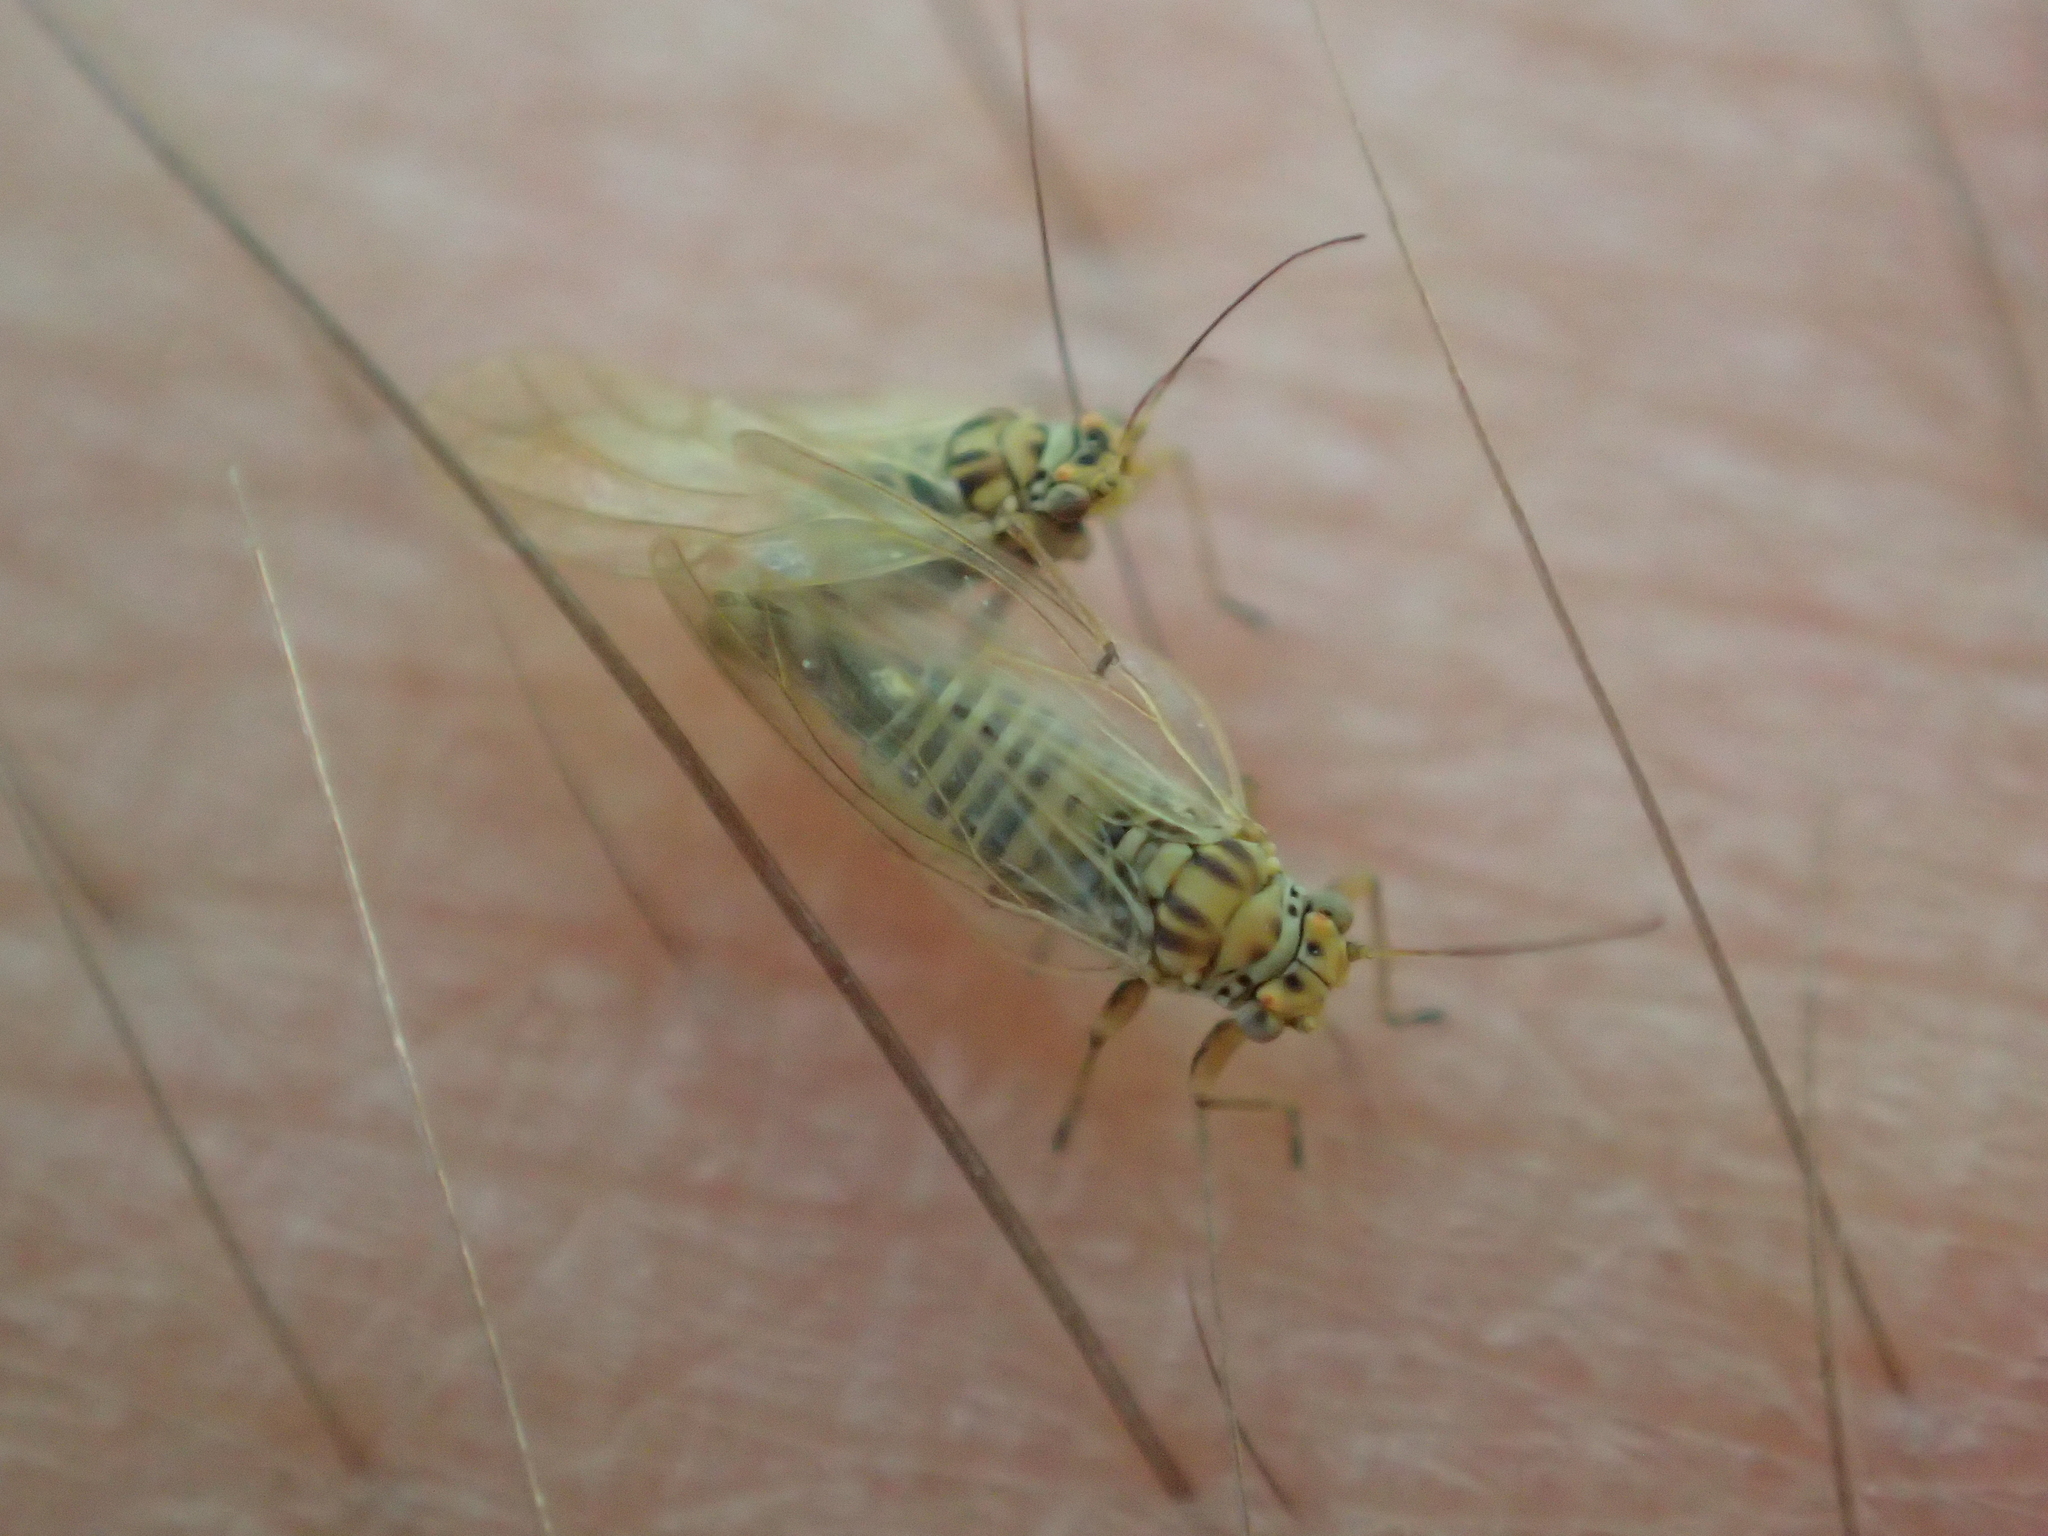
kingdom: Animalia
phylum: Arthropoda
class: Insecta
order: Hemiptera
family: Psyllidae
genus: Arytainilla
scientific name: Arytainilla spartiophila
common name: Psyllid
